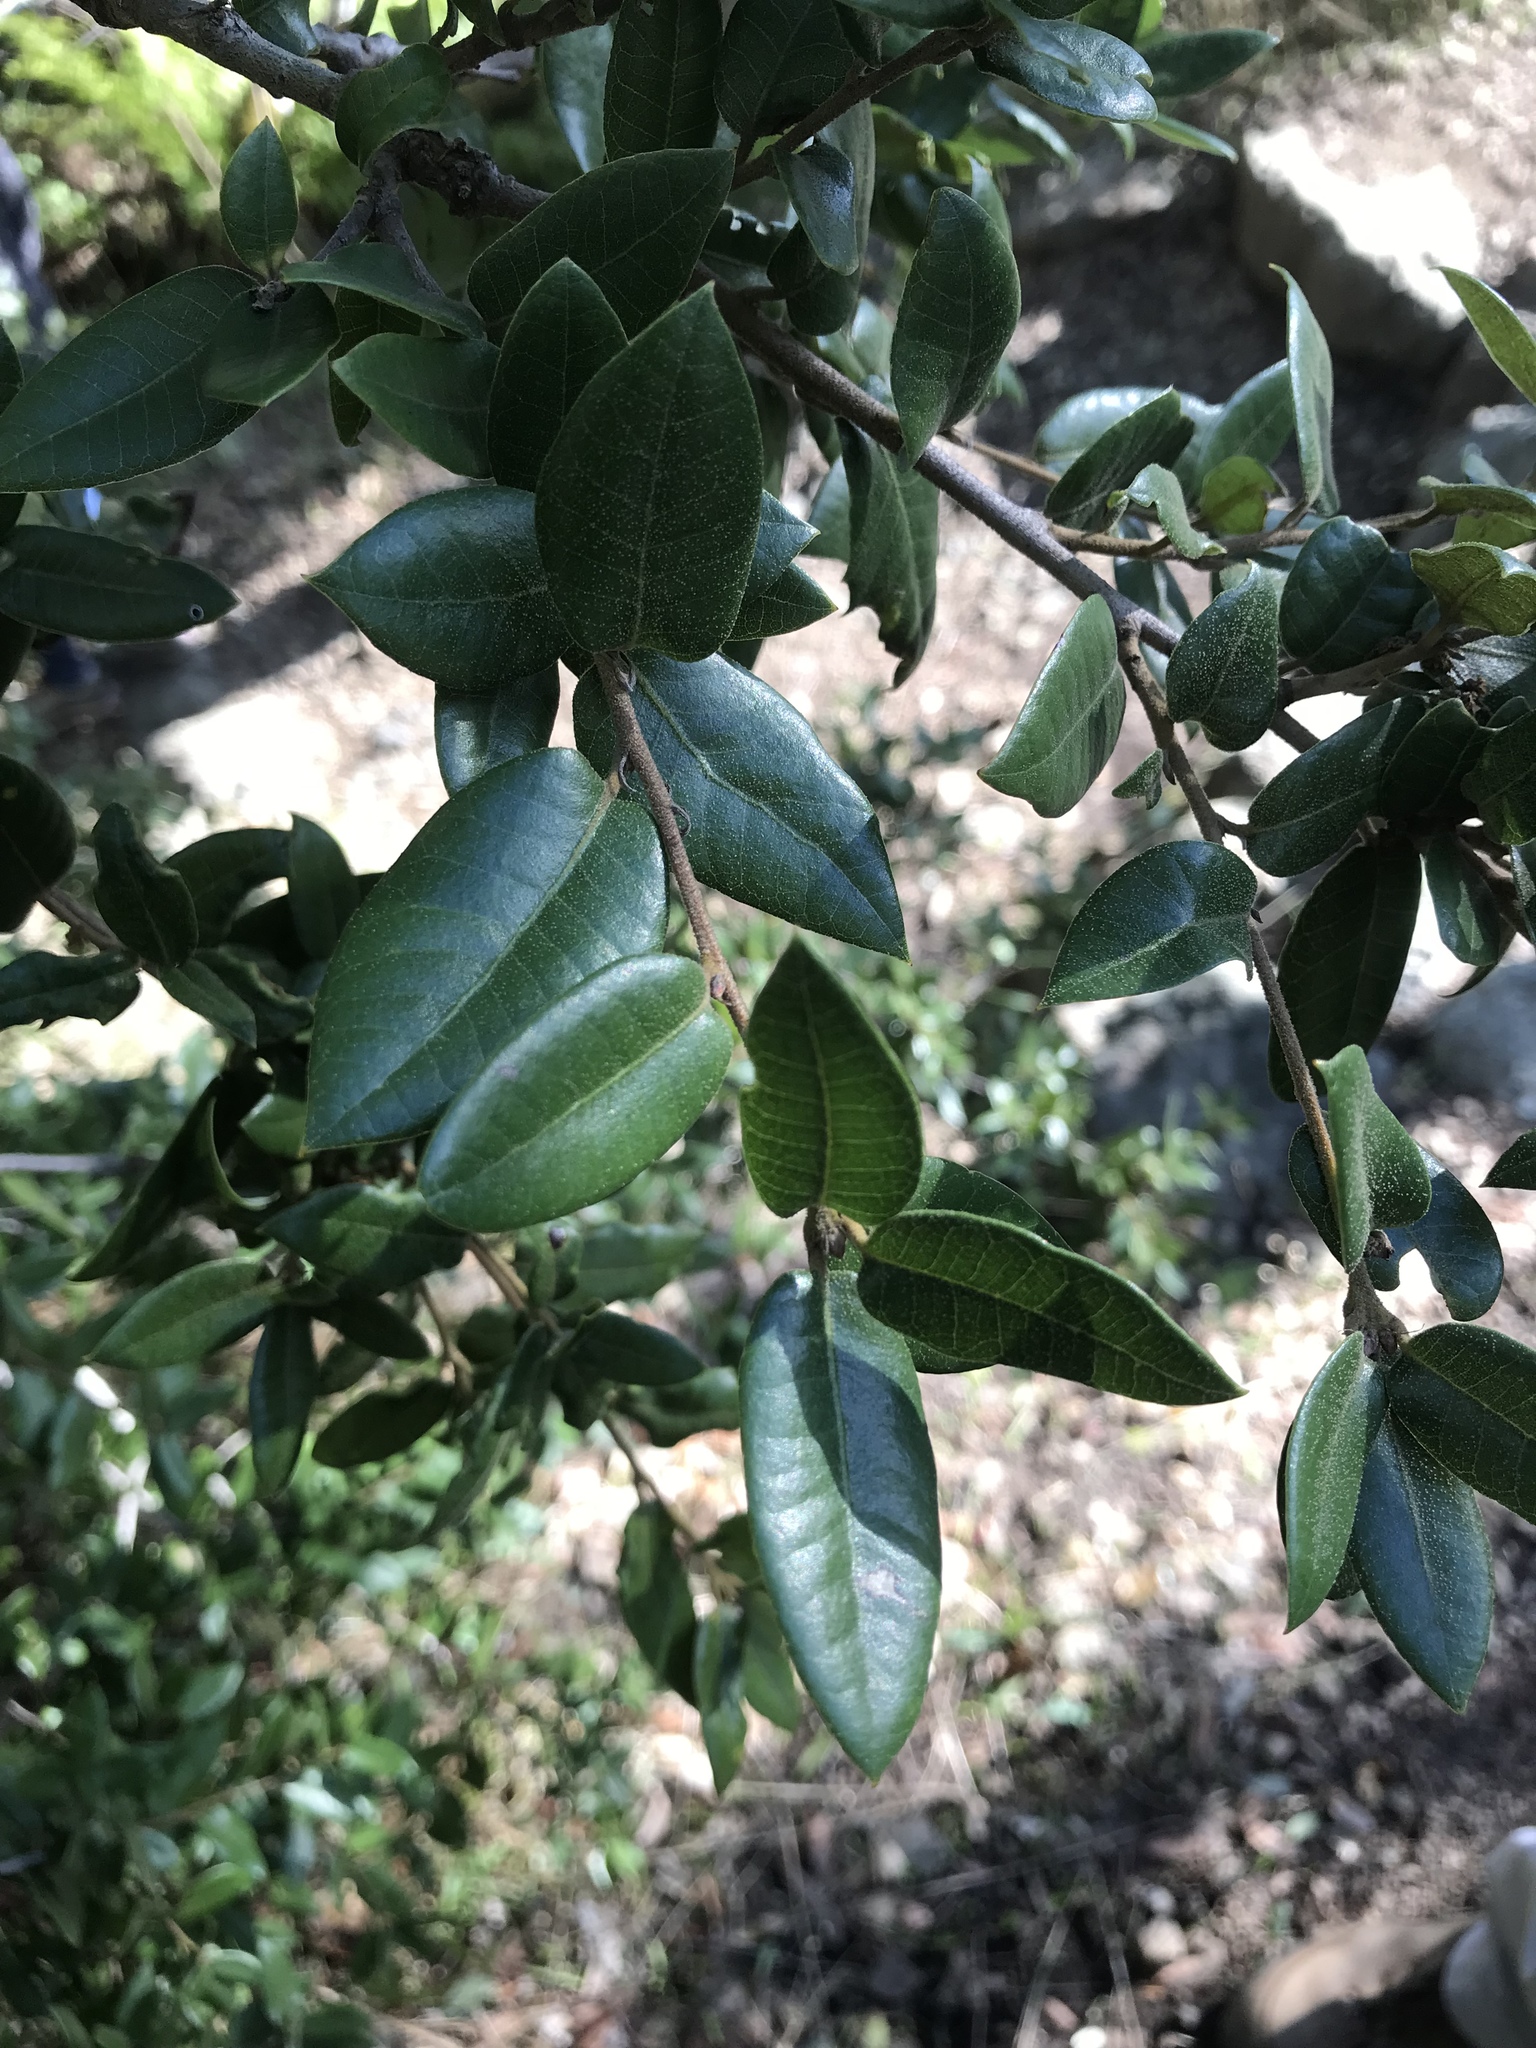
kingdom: Plantae
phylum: Tracheophyta
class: Magnoliopsida
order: Fagales
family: Fagaceae
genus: Quercus
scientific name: Quercus chrysolepis
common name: Canyon live oak
